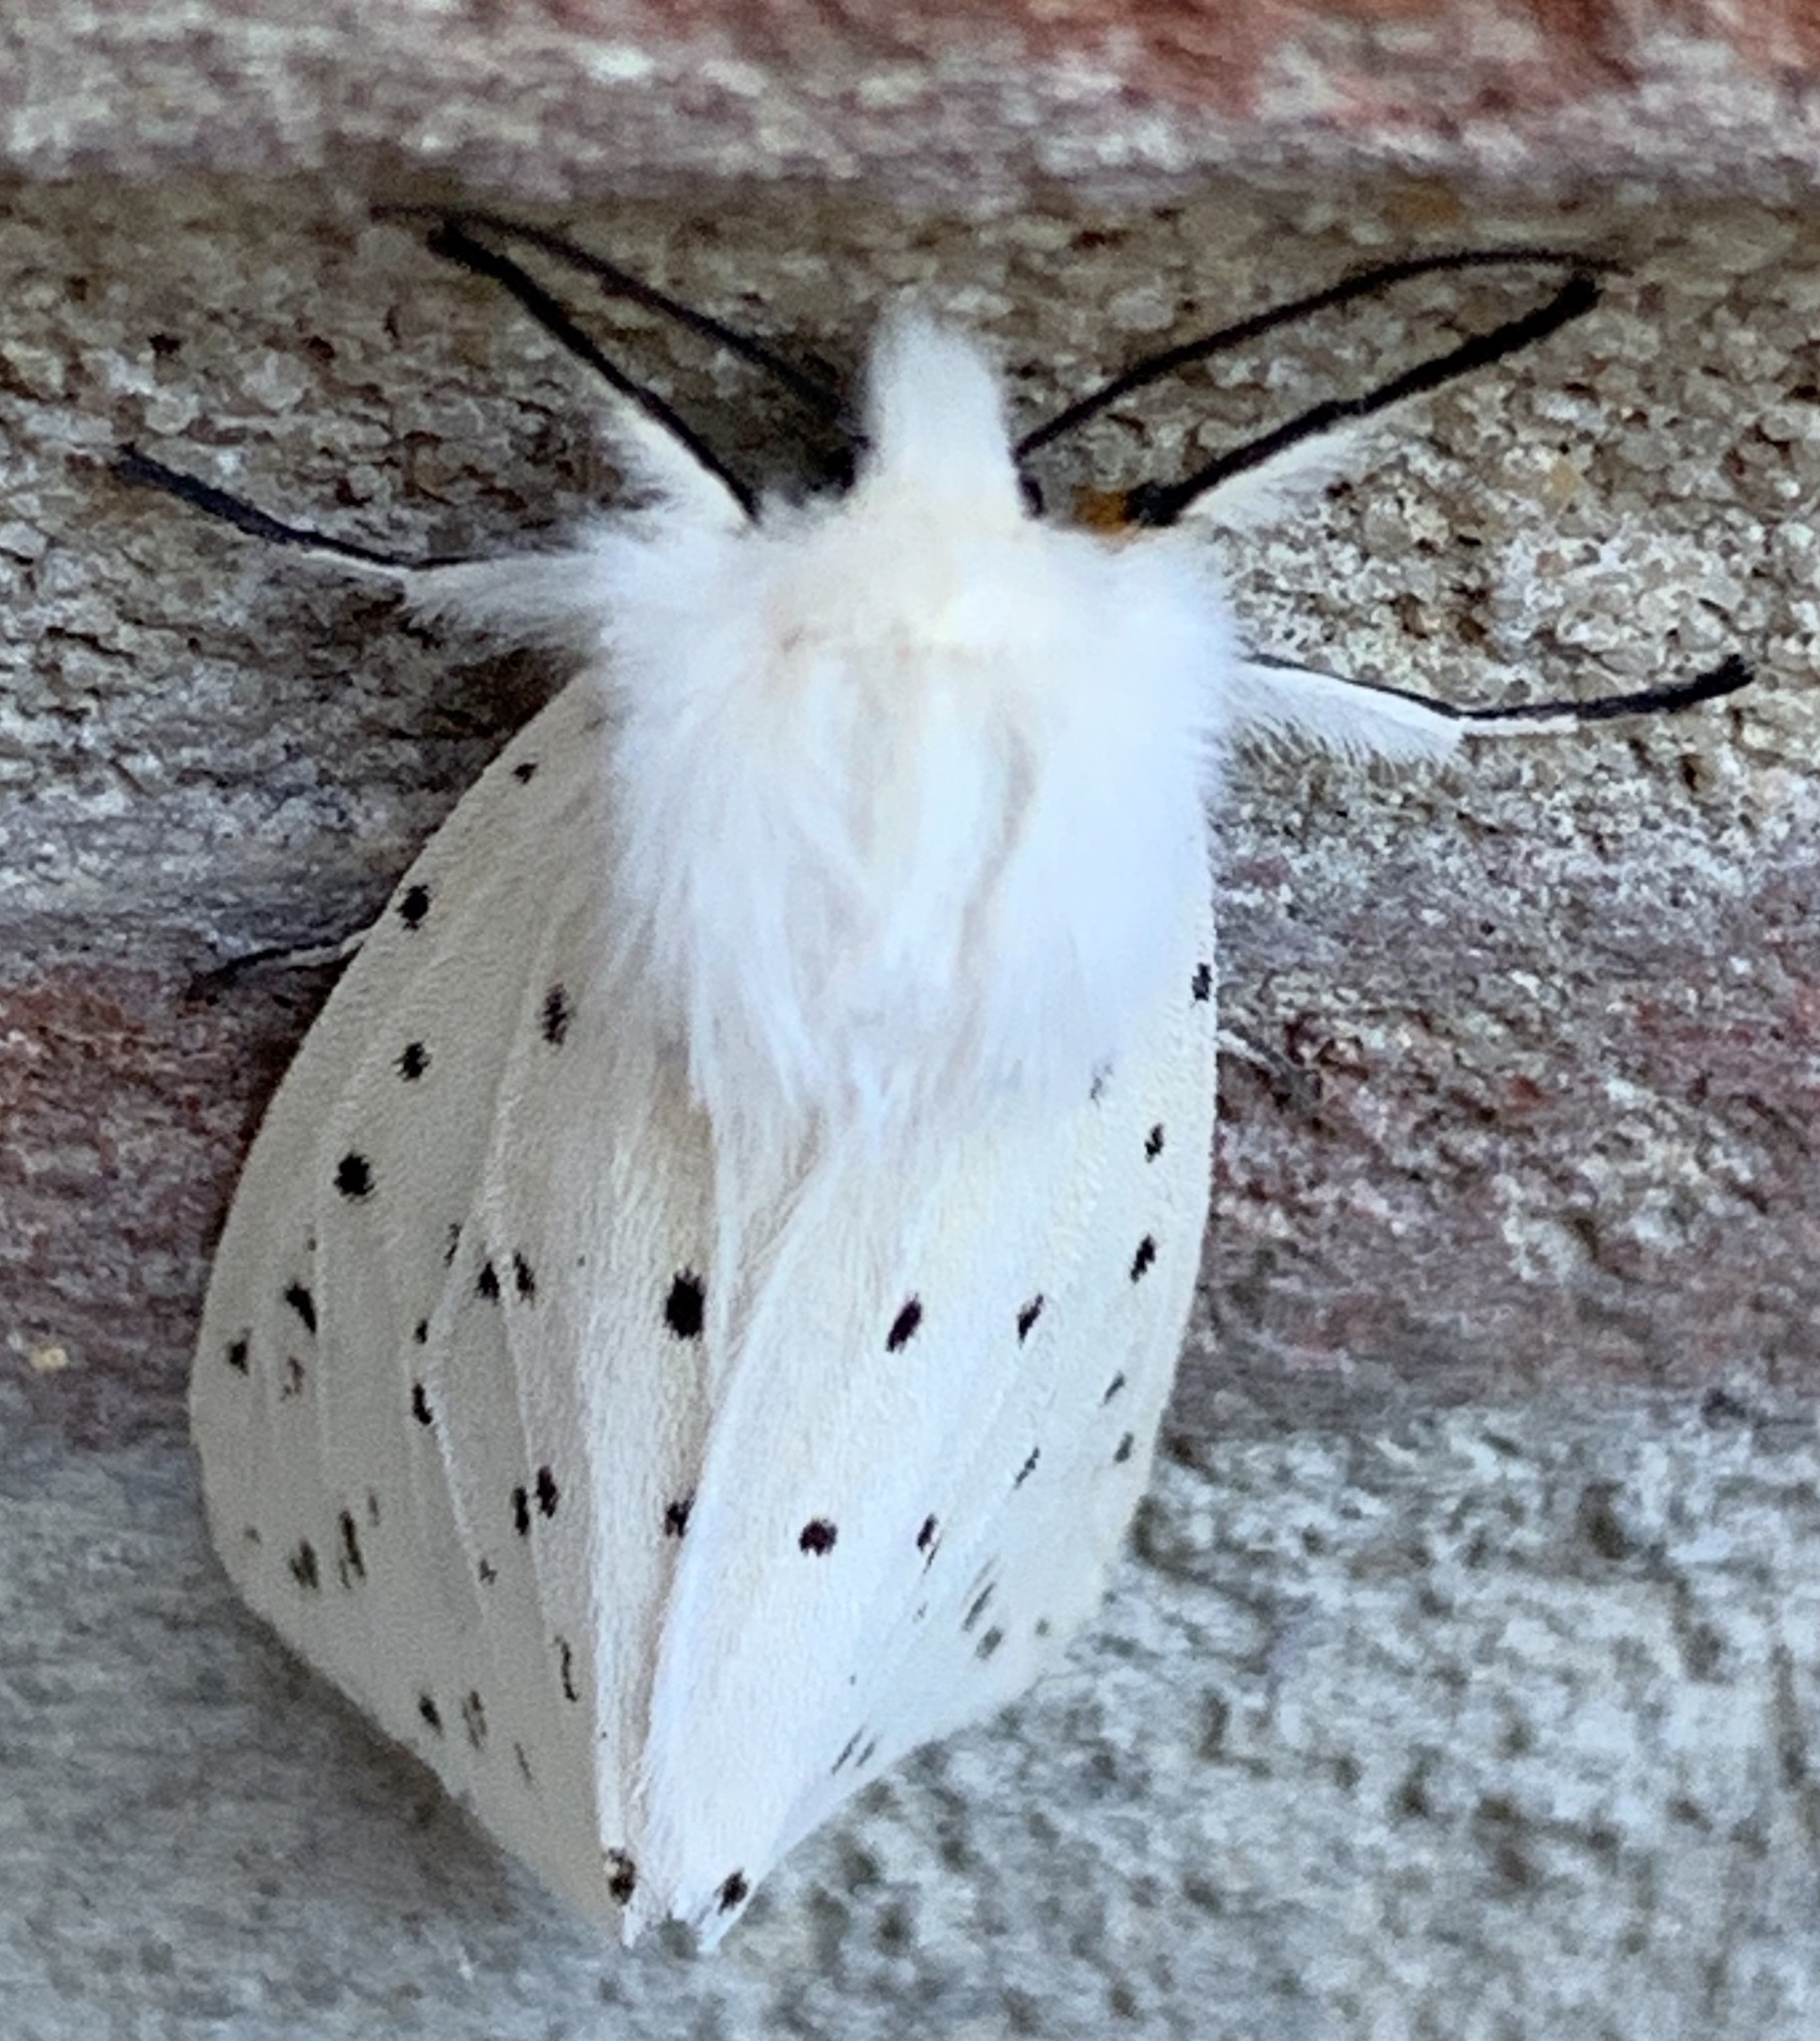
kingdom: Animalia
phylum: Arthropoda
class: Insecta
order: Lepidoptera
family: Erebidae
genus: Spilosoma
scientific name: Spilosoma lubricipeda
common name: White ermine
